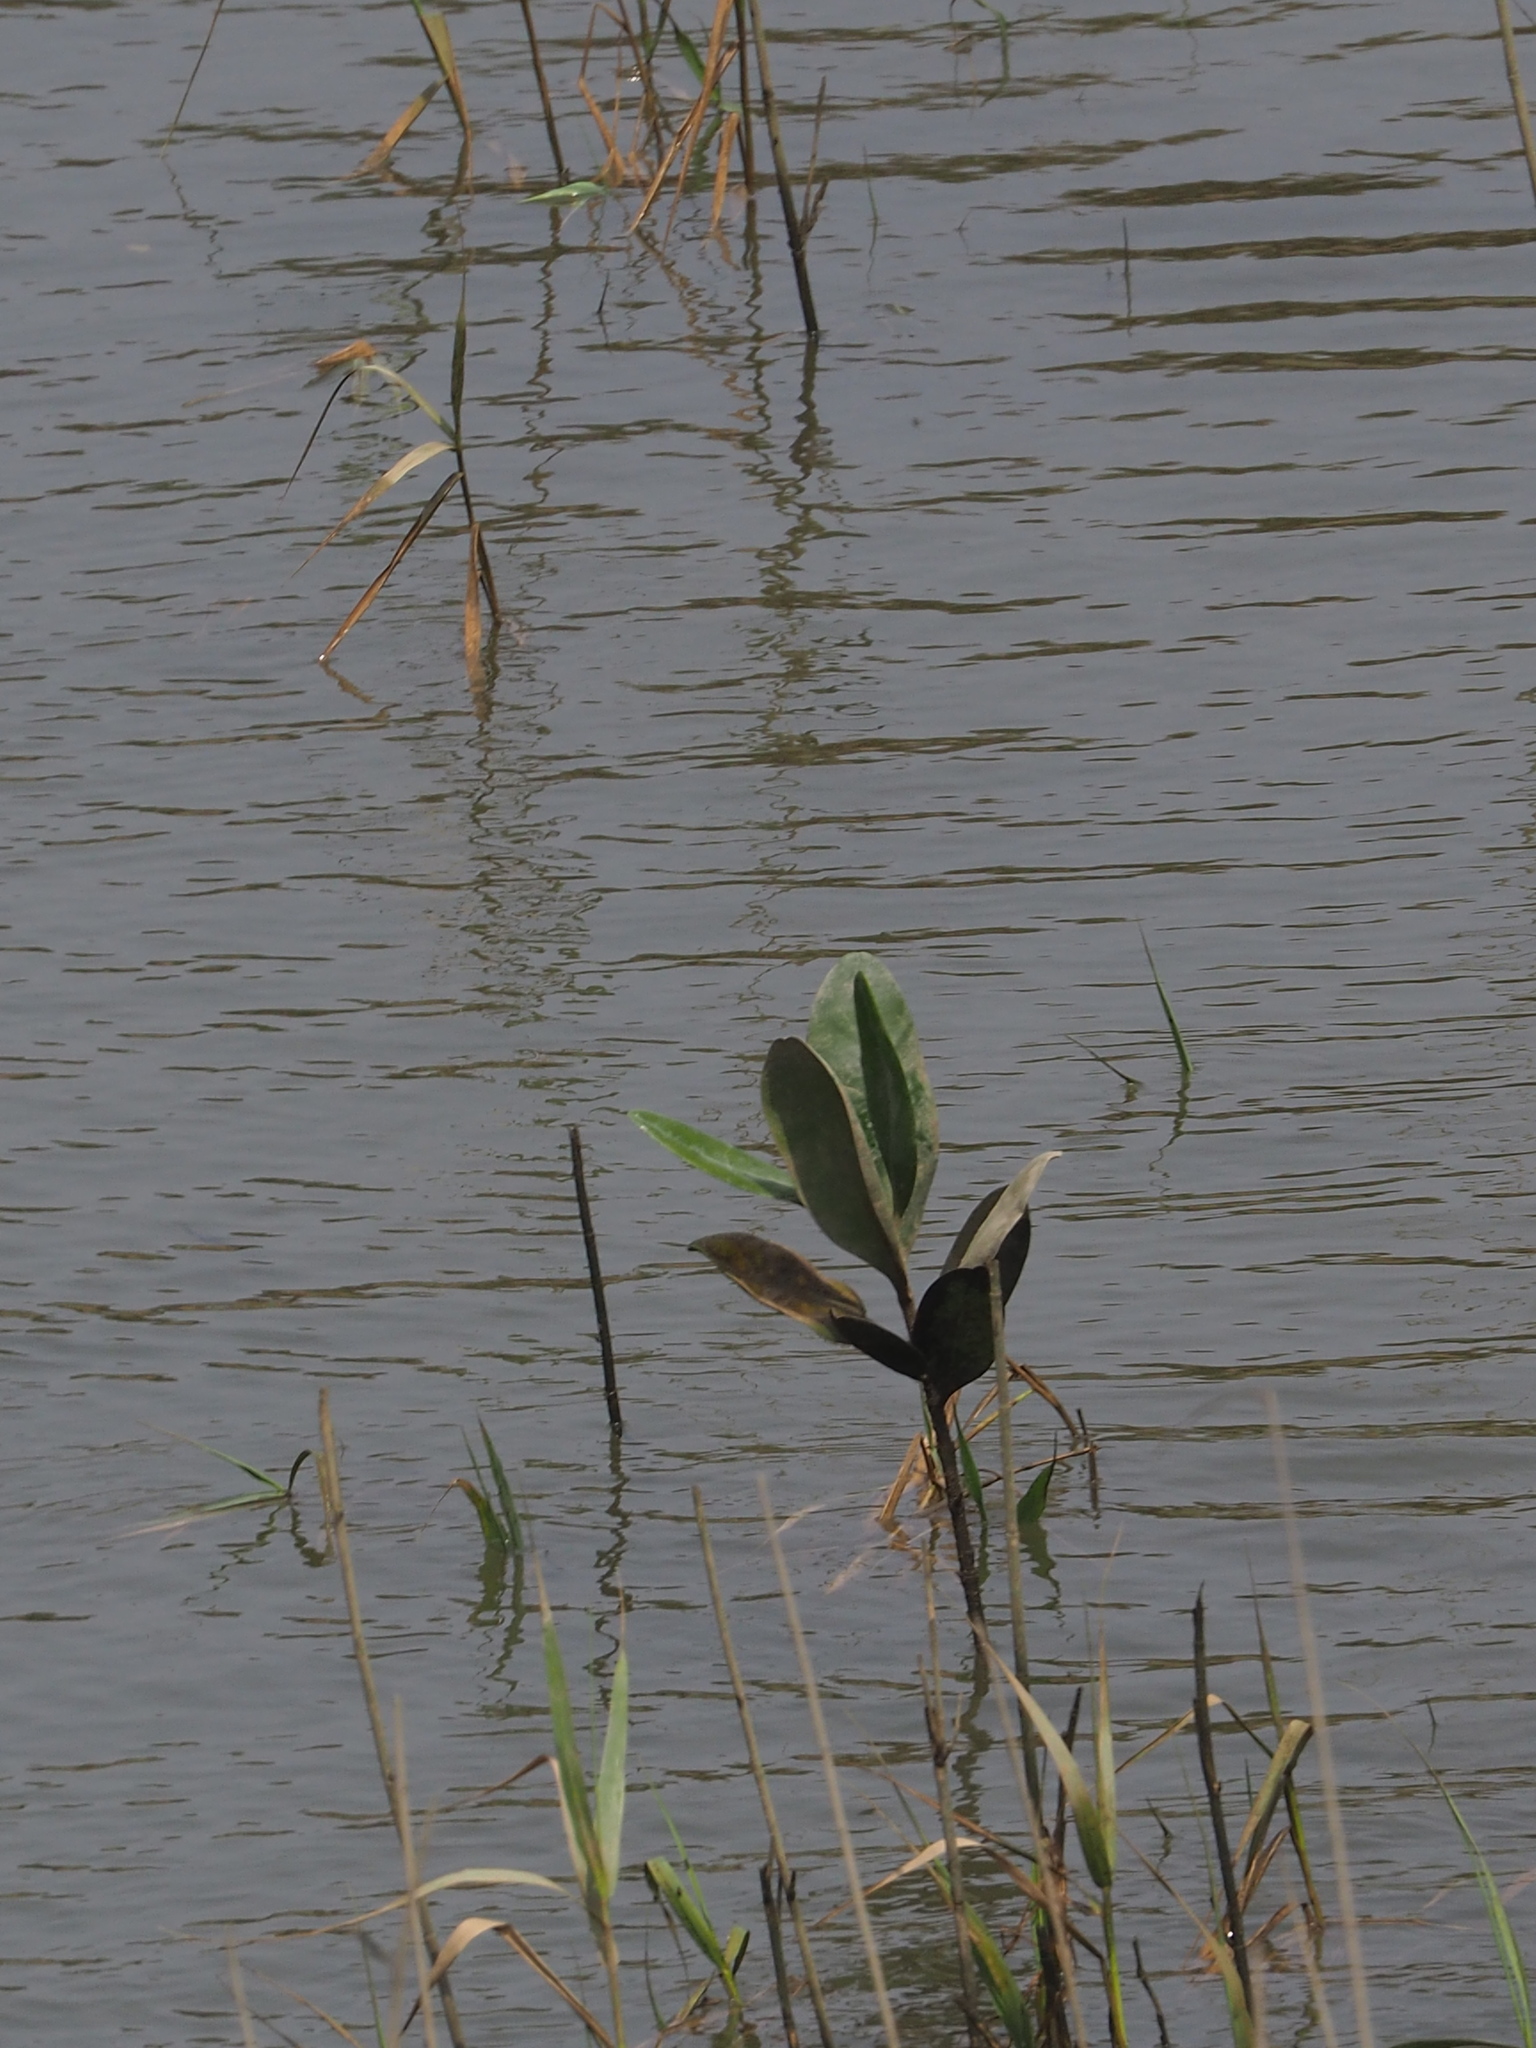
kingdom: Plantae
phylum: Tracheophyta
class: Magnoliopsida
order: Malpighiales
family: Rhizophoraceae
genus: Kandelia
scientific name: Kandelia obovata
